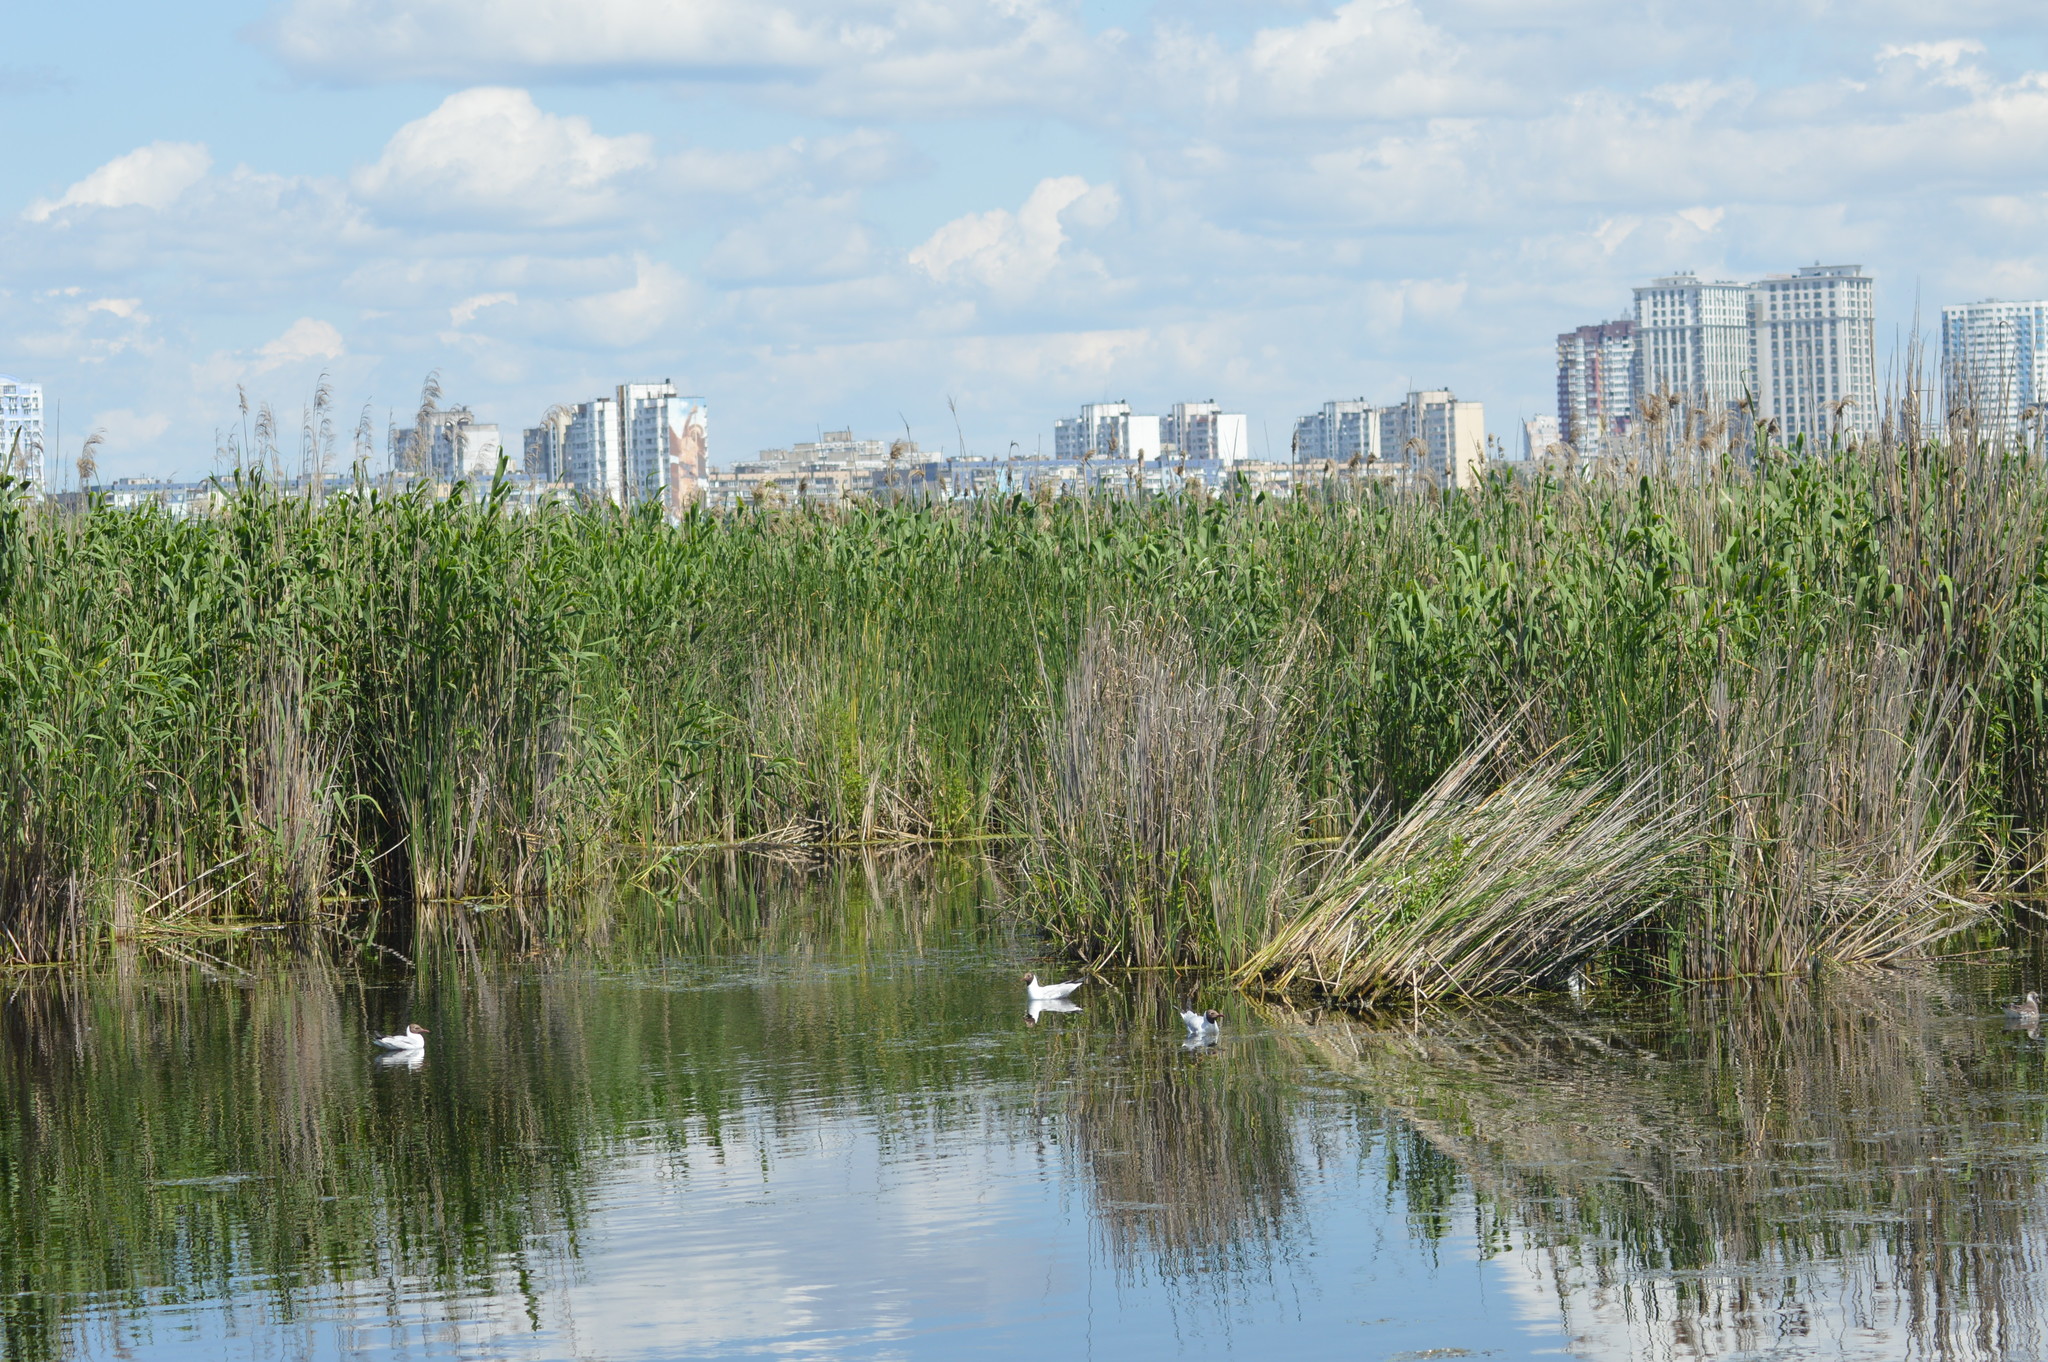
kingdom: Animalia
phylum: Chordata
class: Aves
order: Charadriiformes
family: Laridae
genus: Chroicocephalus
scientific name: Chroicocephalus ridibundus
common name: Black-headed gull
